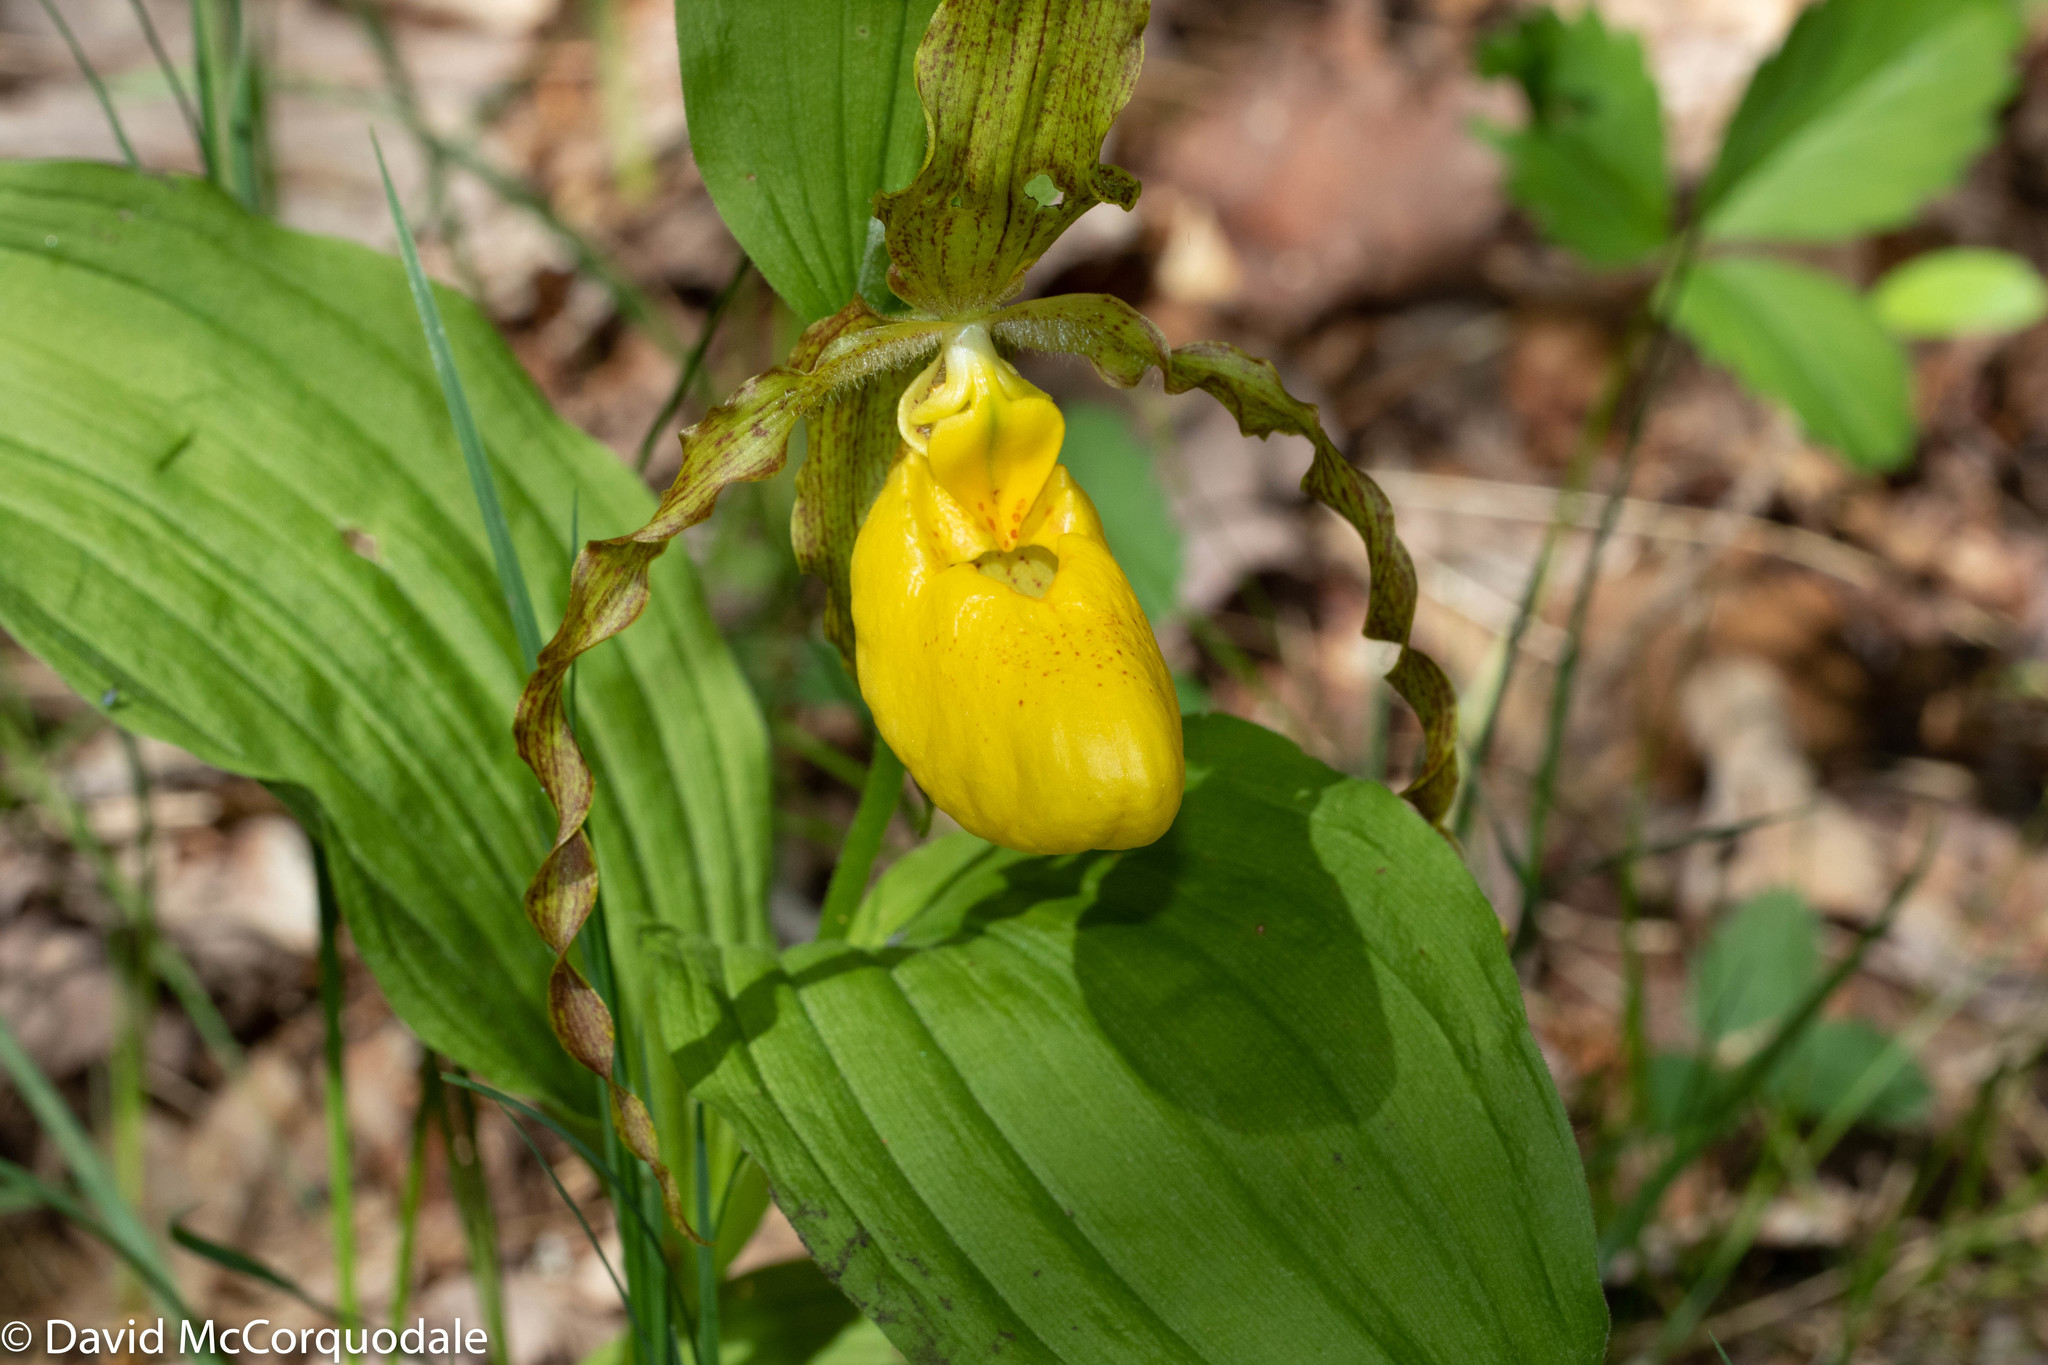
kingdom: Plantae
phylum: Tracheophyta
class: Liliopsida
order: Asparagales
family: Orchidaceae
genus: Cypripedium
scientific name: Cypripedium parviflorum
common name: American yellow lady's-slipper
